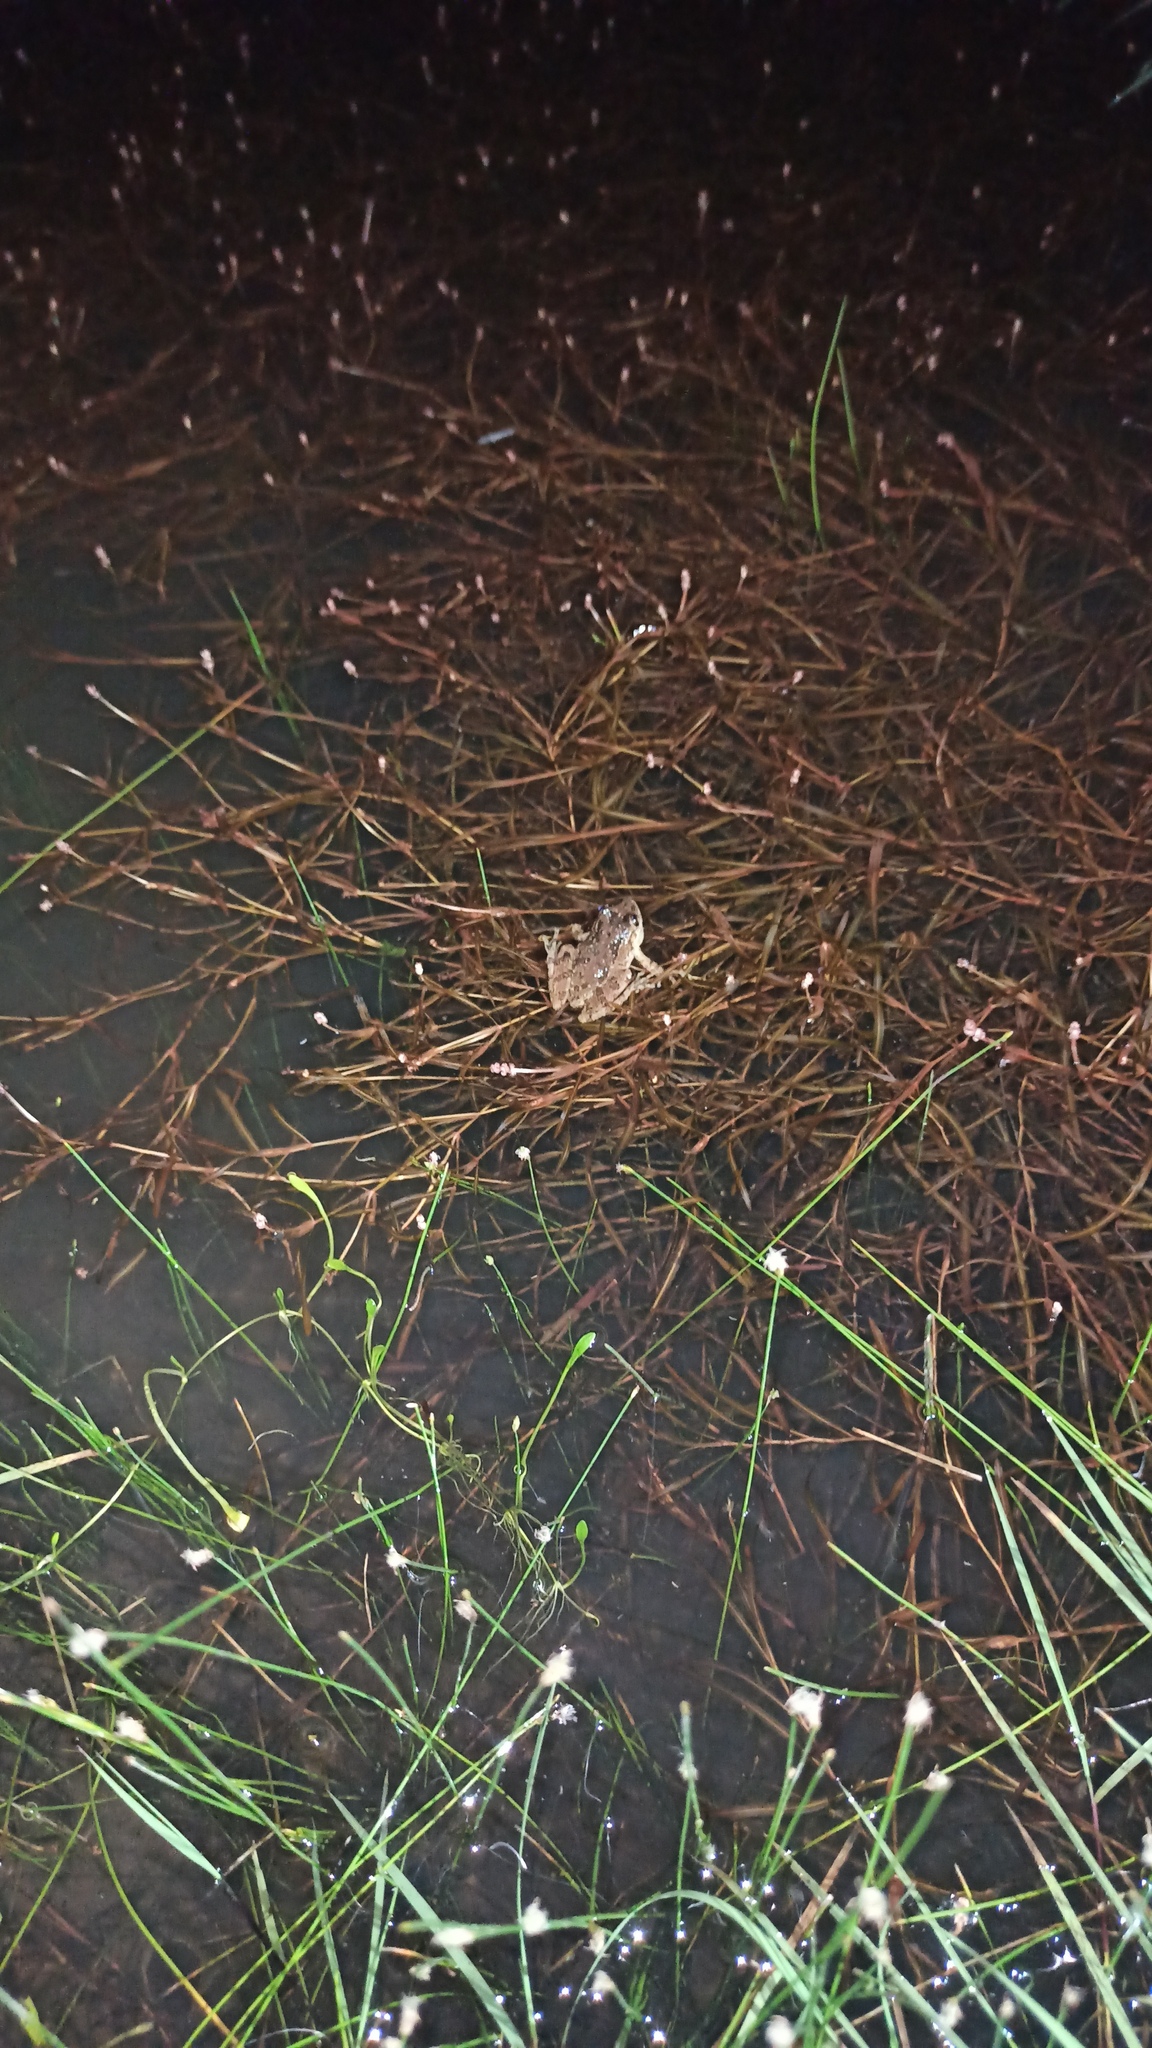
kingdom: Animalia
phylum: Chordata
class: Amphibia
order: Anura
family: Hylidae
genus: Scinax
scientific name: Scinax fuscovarius
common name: Fuscous-blotched treefrog
